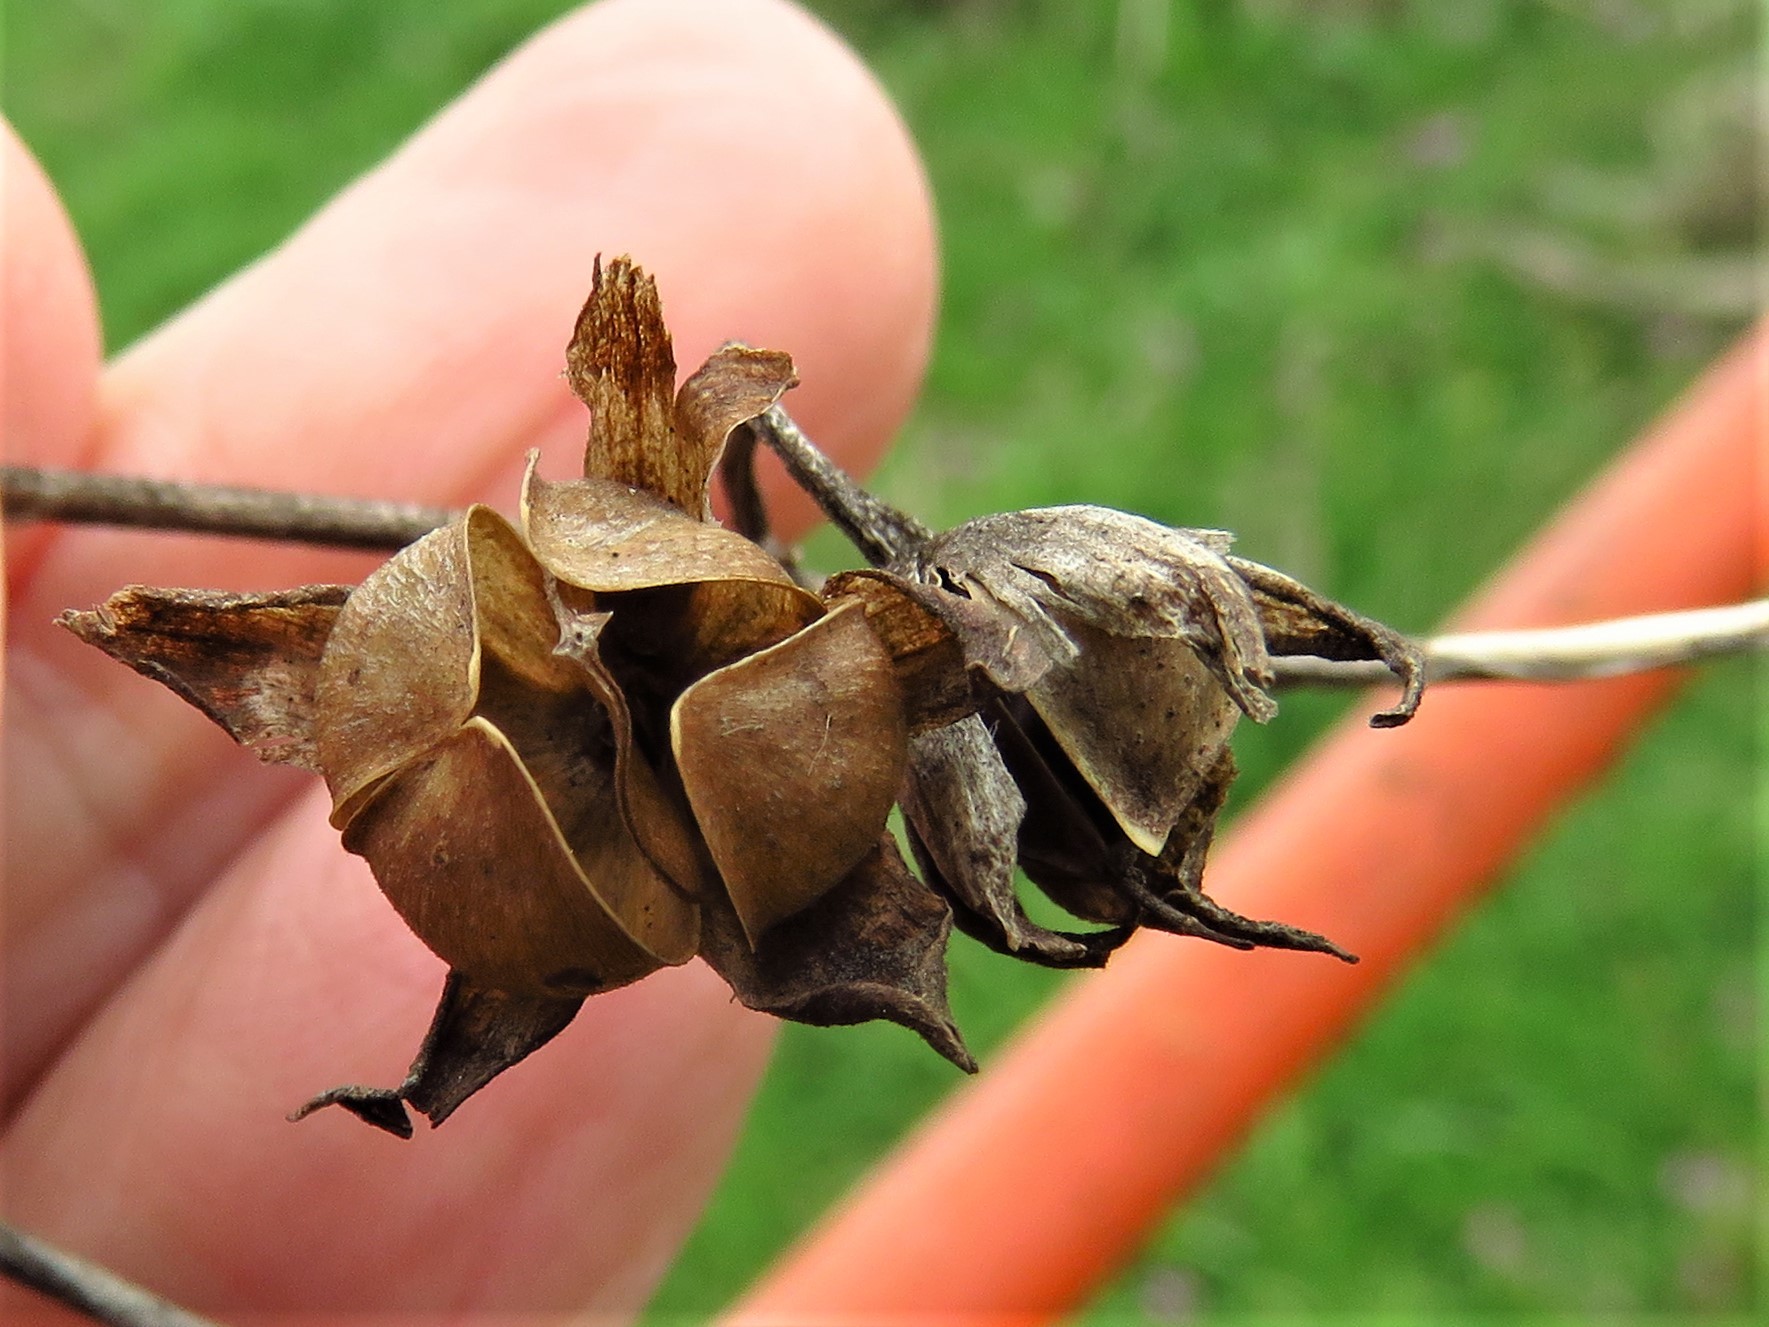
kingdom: Plantae
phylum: Tracheophyta
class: Magnoliopsida
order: Solanales
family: Convolvulaceae
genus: Ipomoea
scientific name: Ipomoea cordatotriloba
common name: Cotton morning glory
